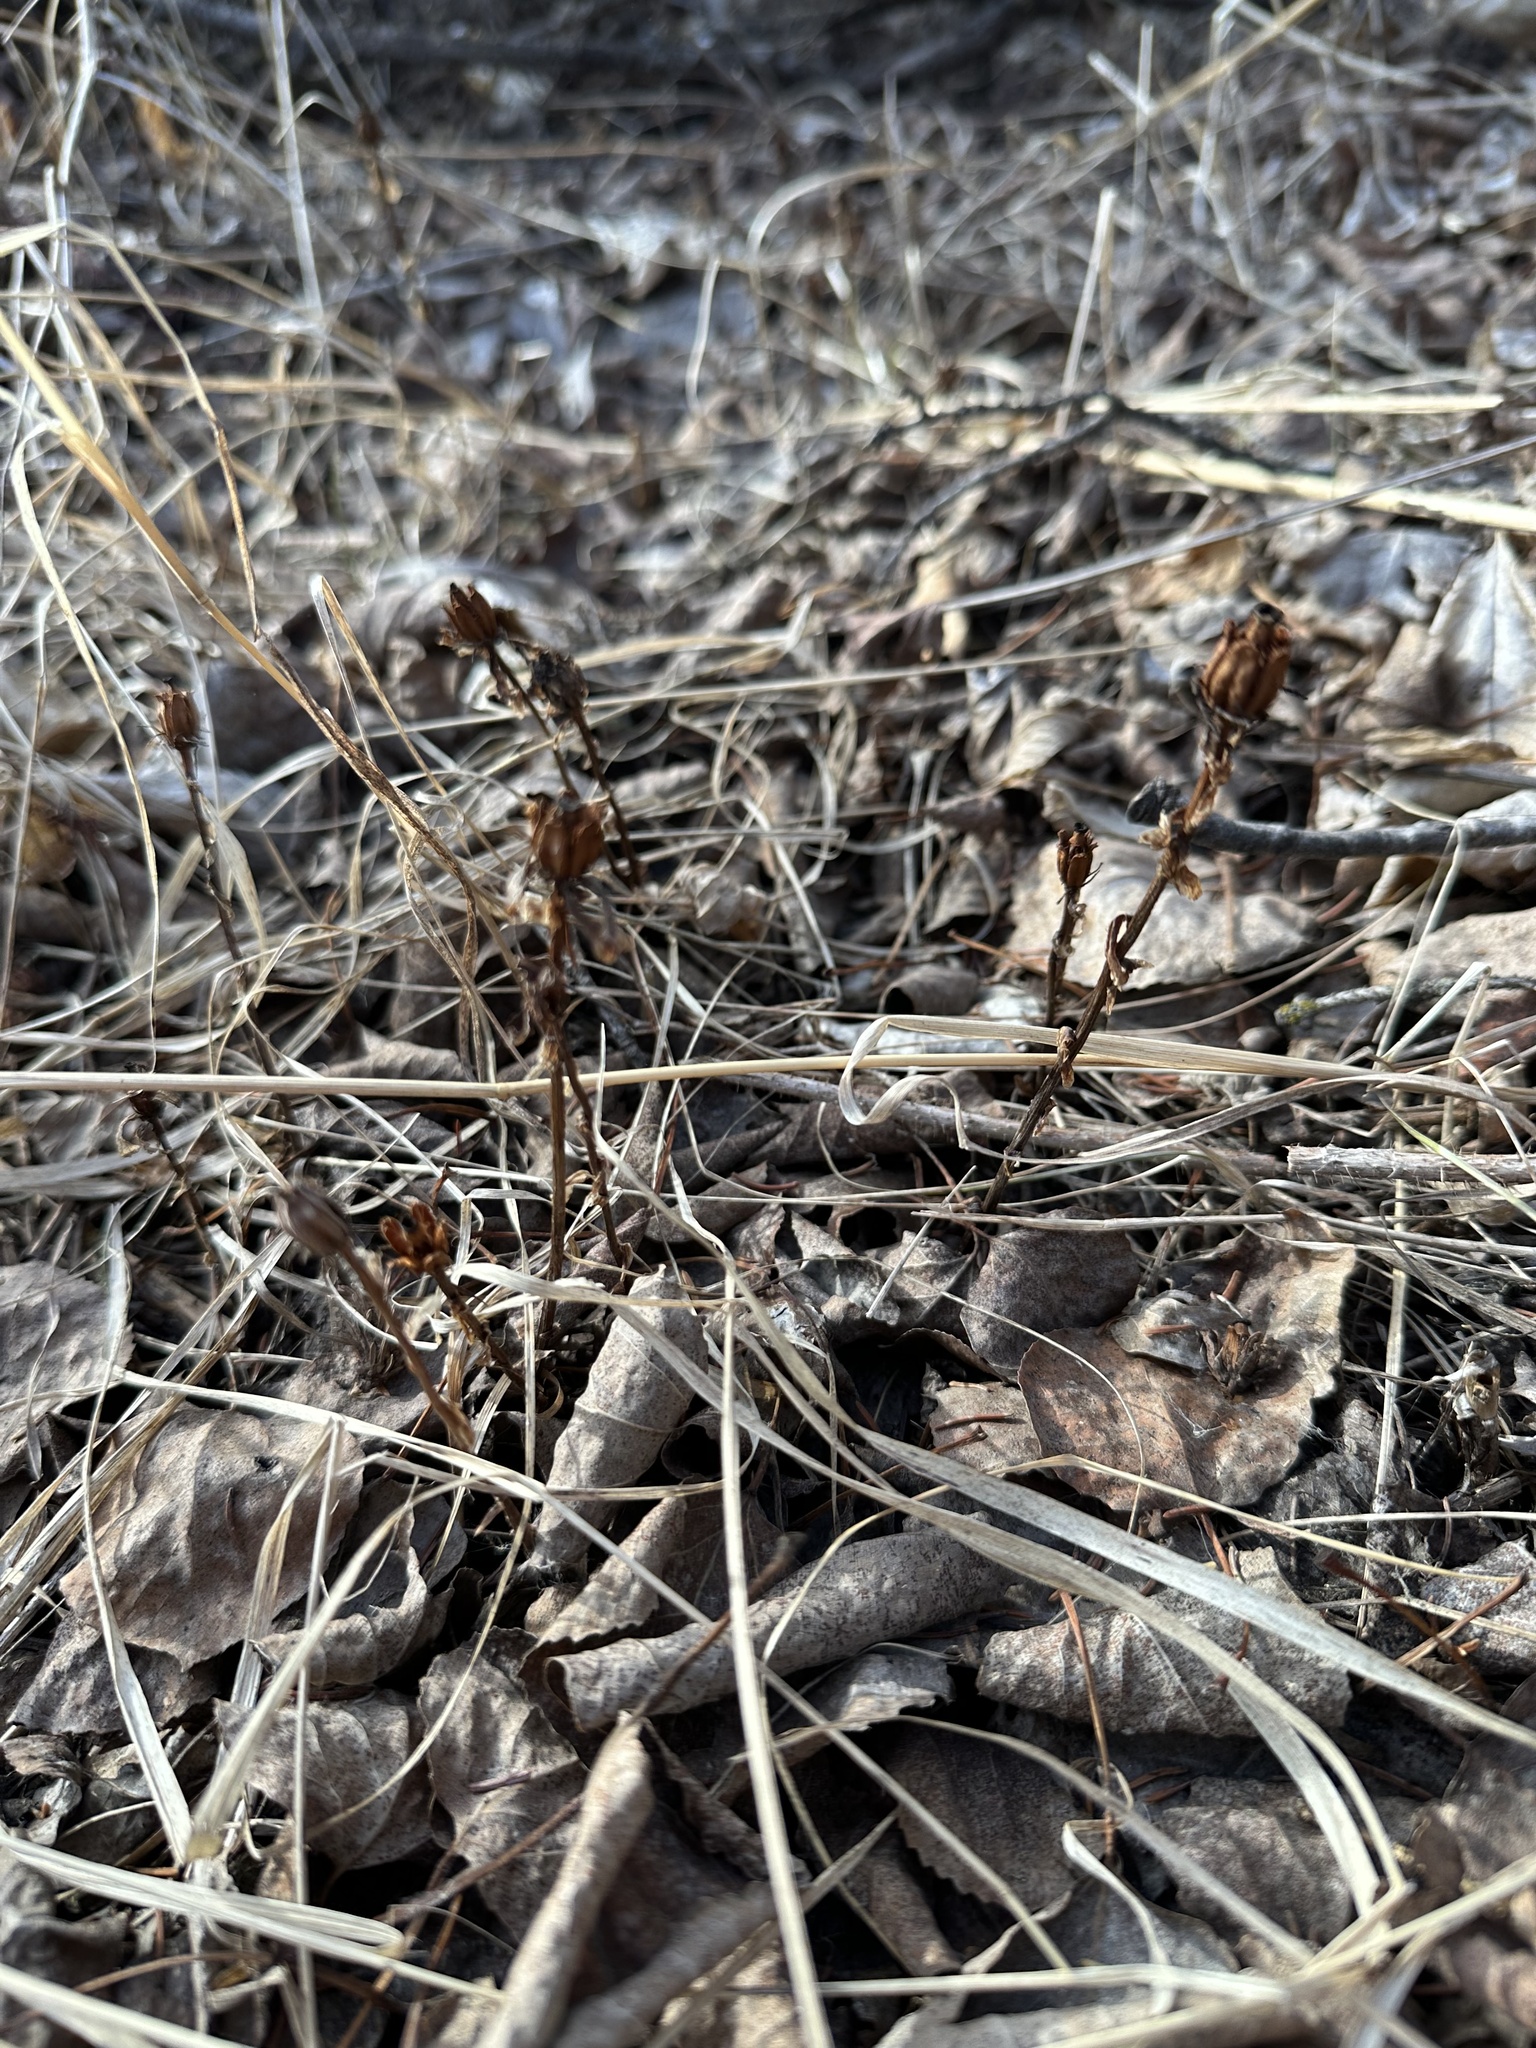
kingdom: Plantae
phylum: Tracheophyta
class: Magnoliopsida
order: Ericales
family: Ericaceae
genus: Monotropa
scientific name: Monotropa uniflora
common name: Convulsion root
